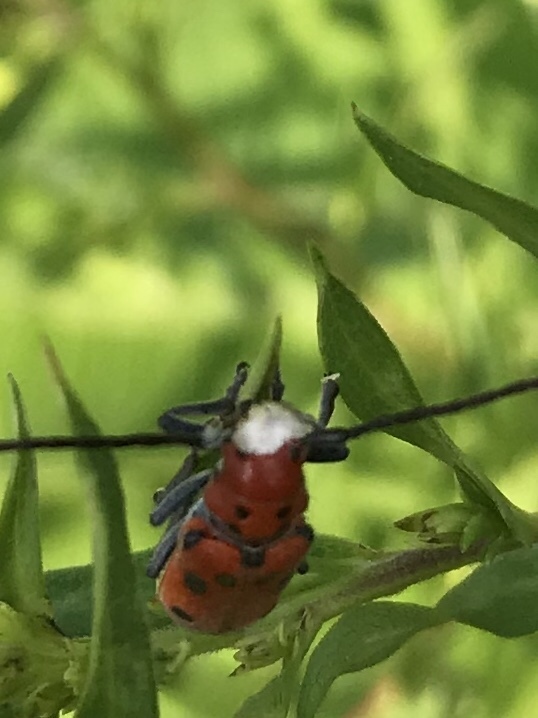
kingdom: Animalia
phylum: Arthropoda
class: Insecta
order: Coleoptera
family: Cerambycidae
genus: Tetraopes
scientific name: Tetraopes tetrophthalmus
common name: Red milkweed beetle
